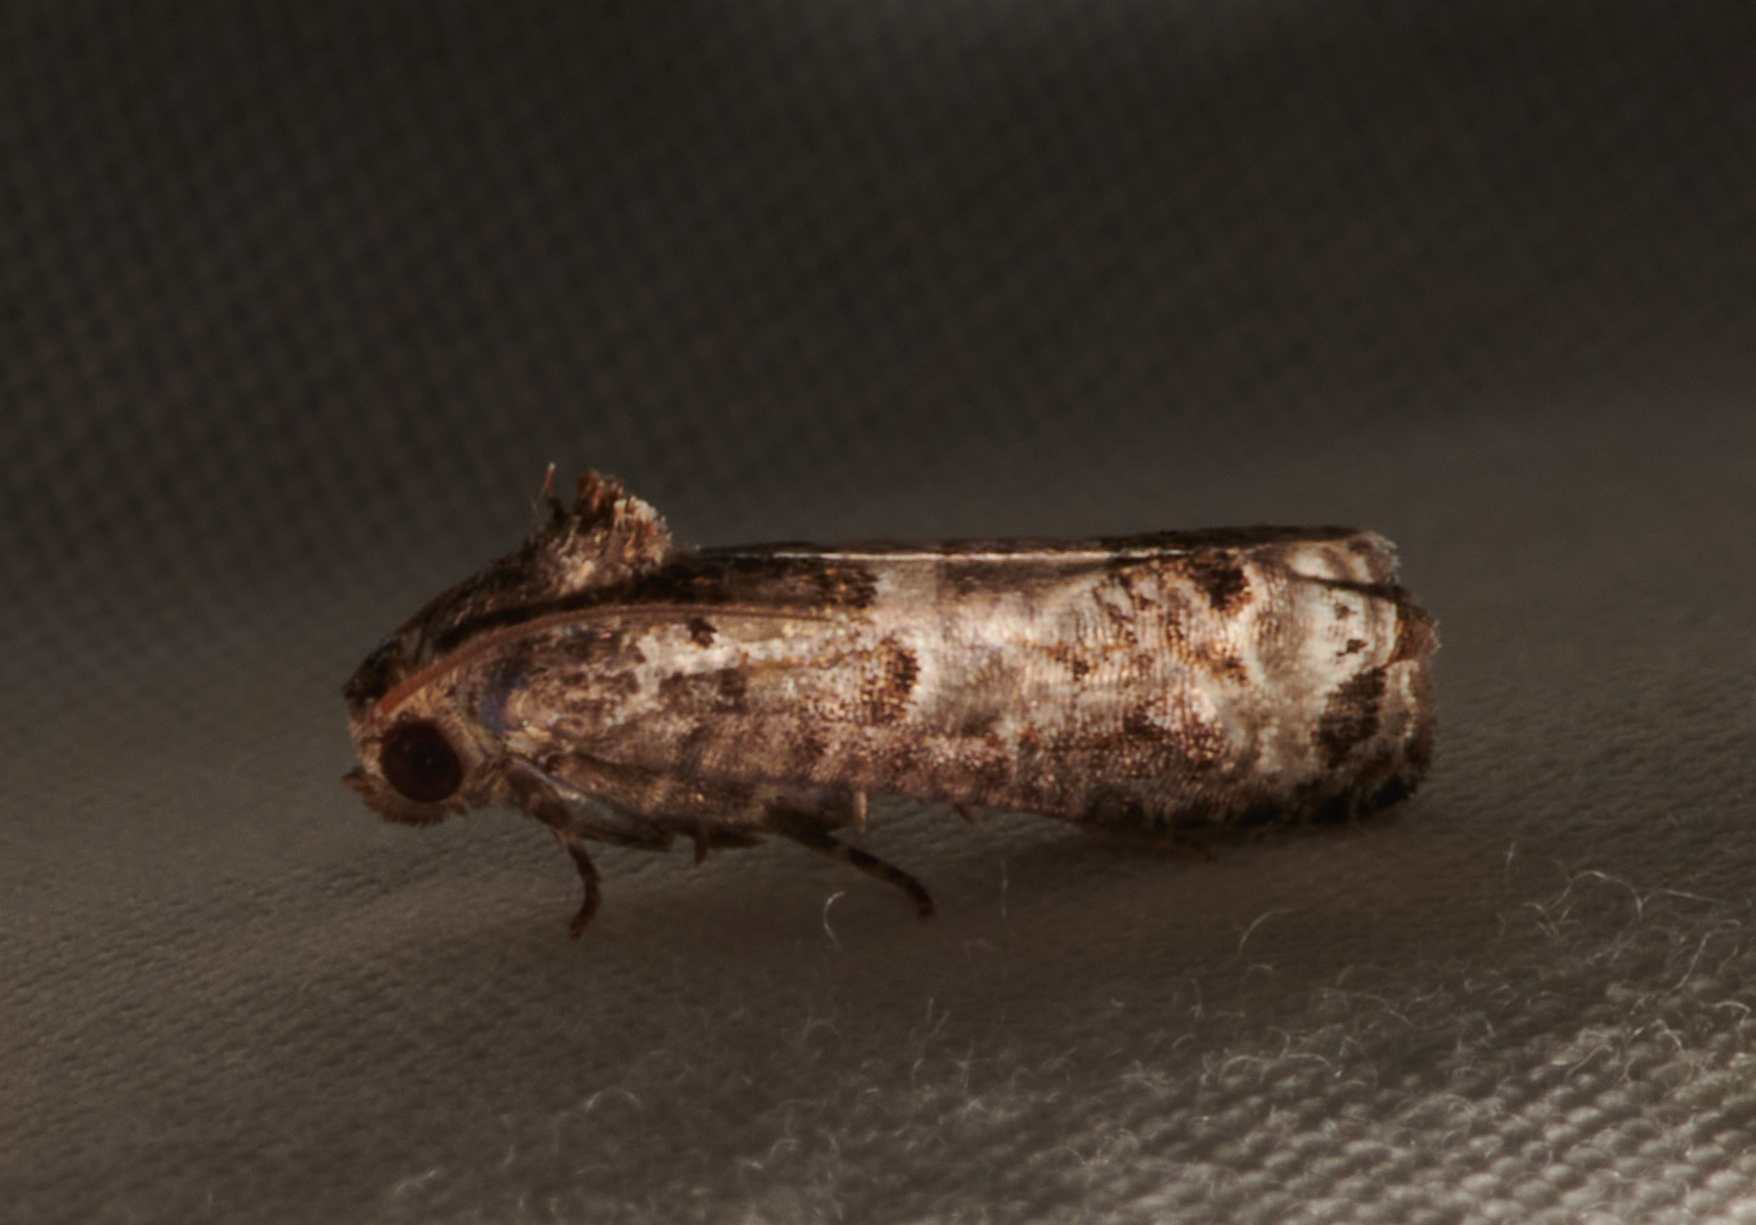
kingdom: Animalia
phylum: Arthropoda
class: Insecta
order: Lepidoptera
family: Tortricidae
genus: Epiblema
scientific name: Epiblema carolinana
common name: Gray-blotched epiblema moth
